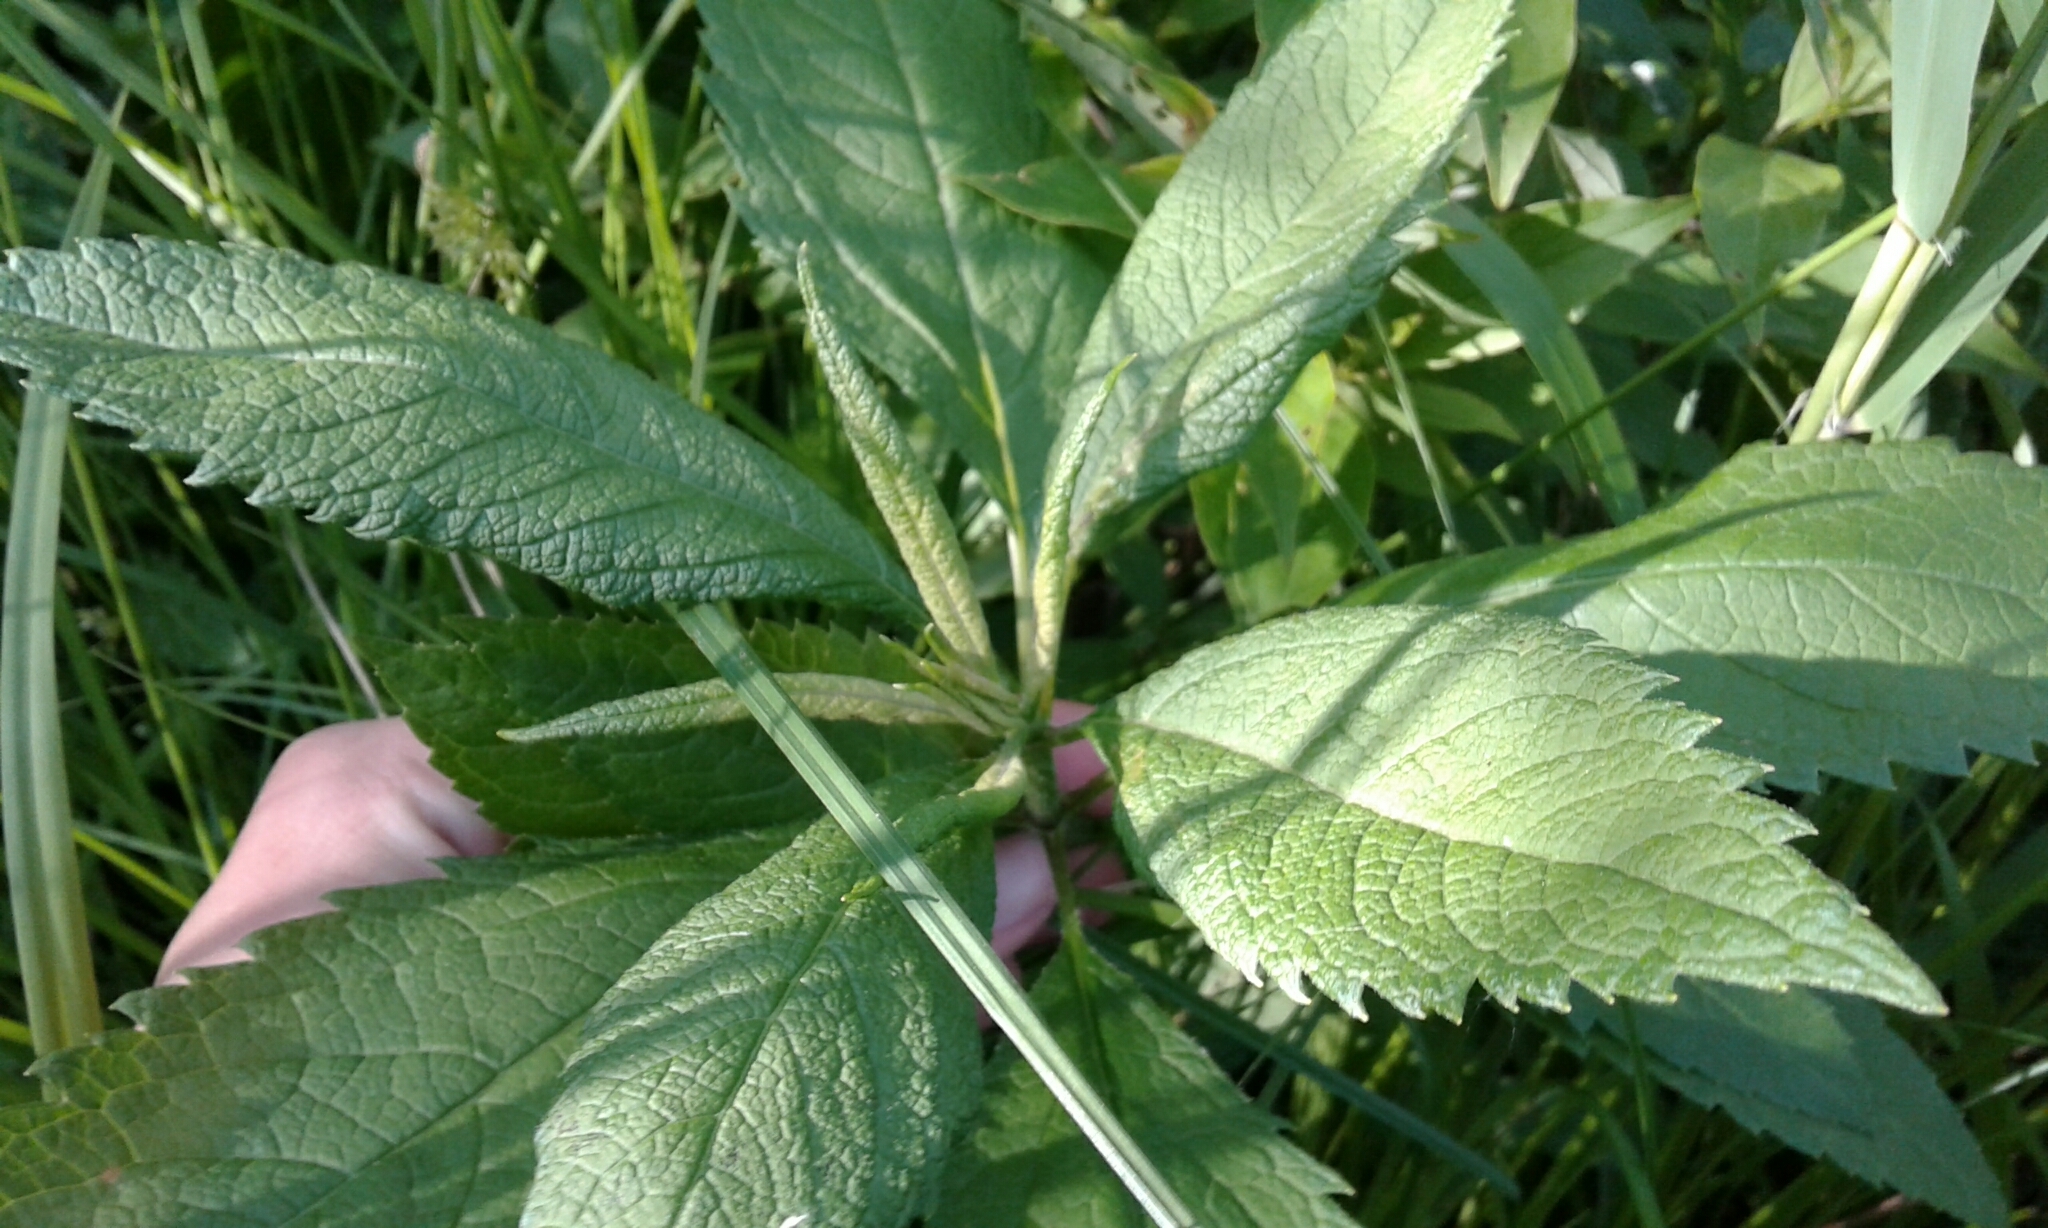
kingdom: Plantae
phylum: Tracheophyta
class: Magnoliopsida
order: Asterales
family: Asteraceae
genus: Eutrochium
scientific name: Eutrochium maculatum
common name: Spotted joe pye weed
